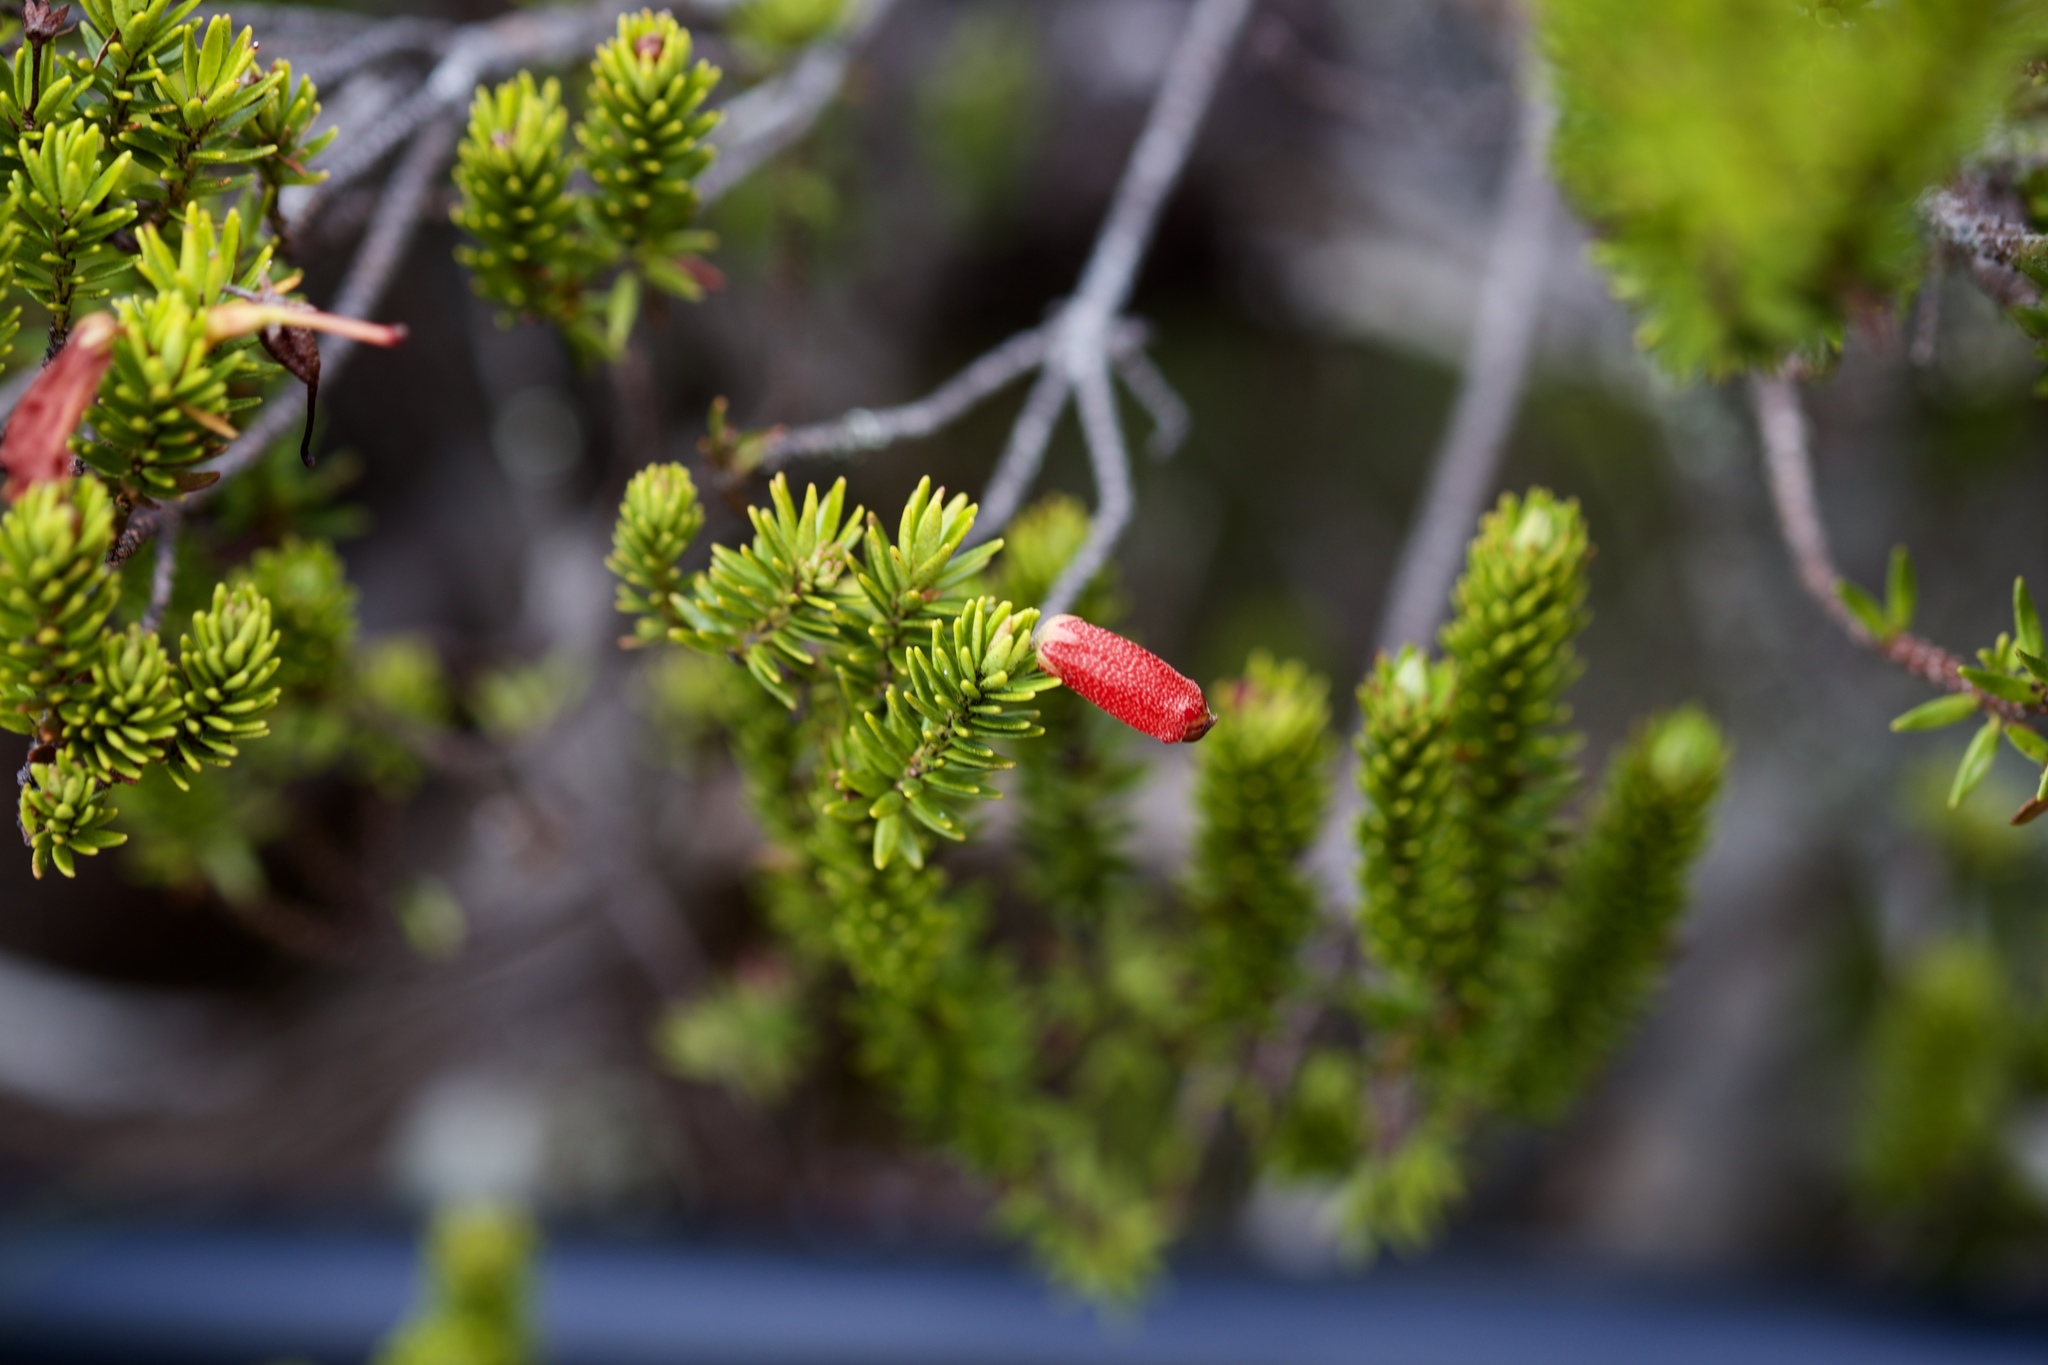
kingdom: Plantae
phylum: Tracheophyta
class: Magnoliopsida
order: Ericales
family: Ericaceae
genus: Rhododendron
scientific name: Rhododendron ericoides
